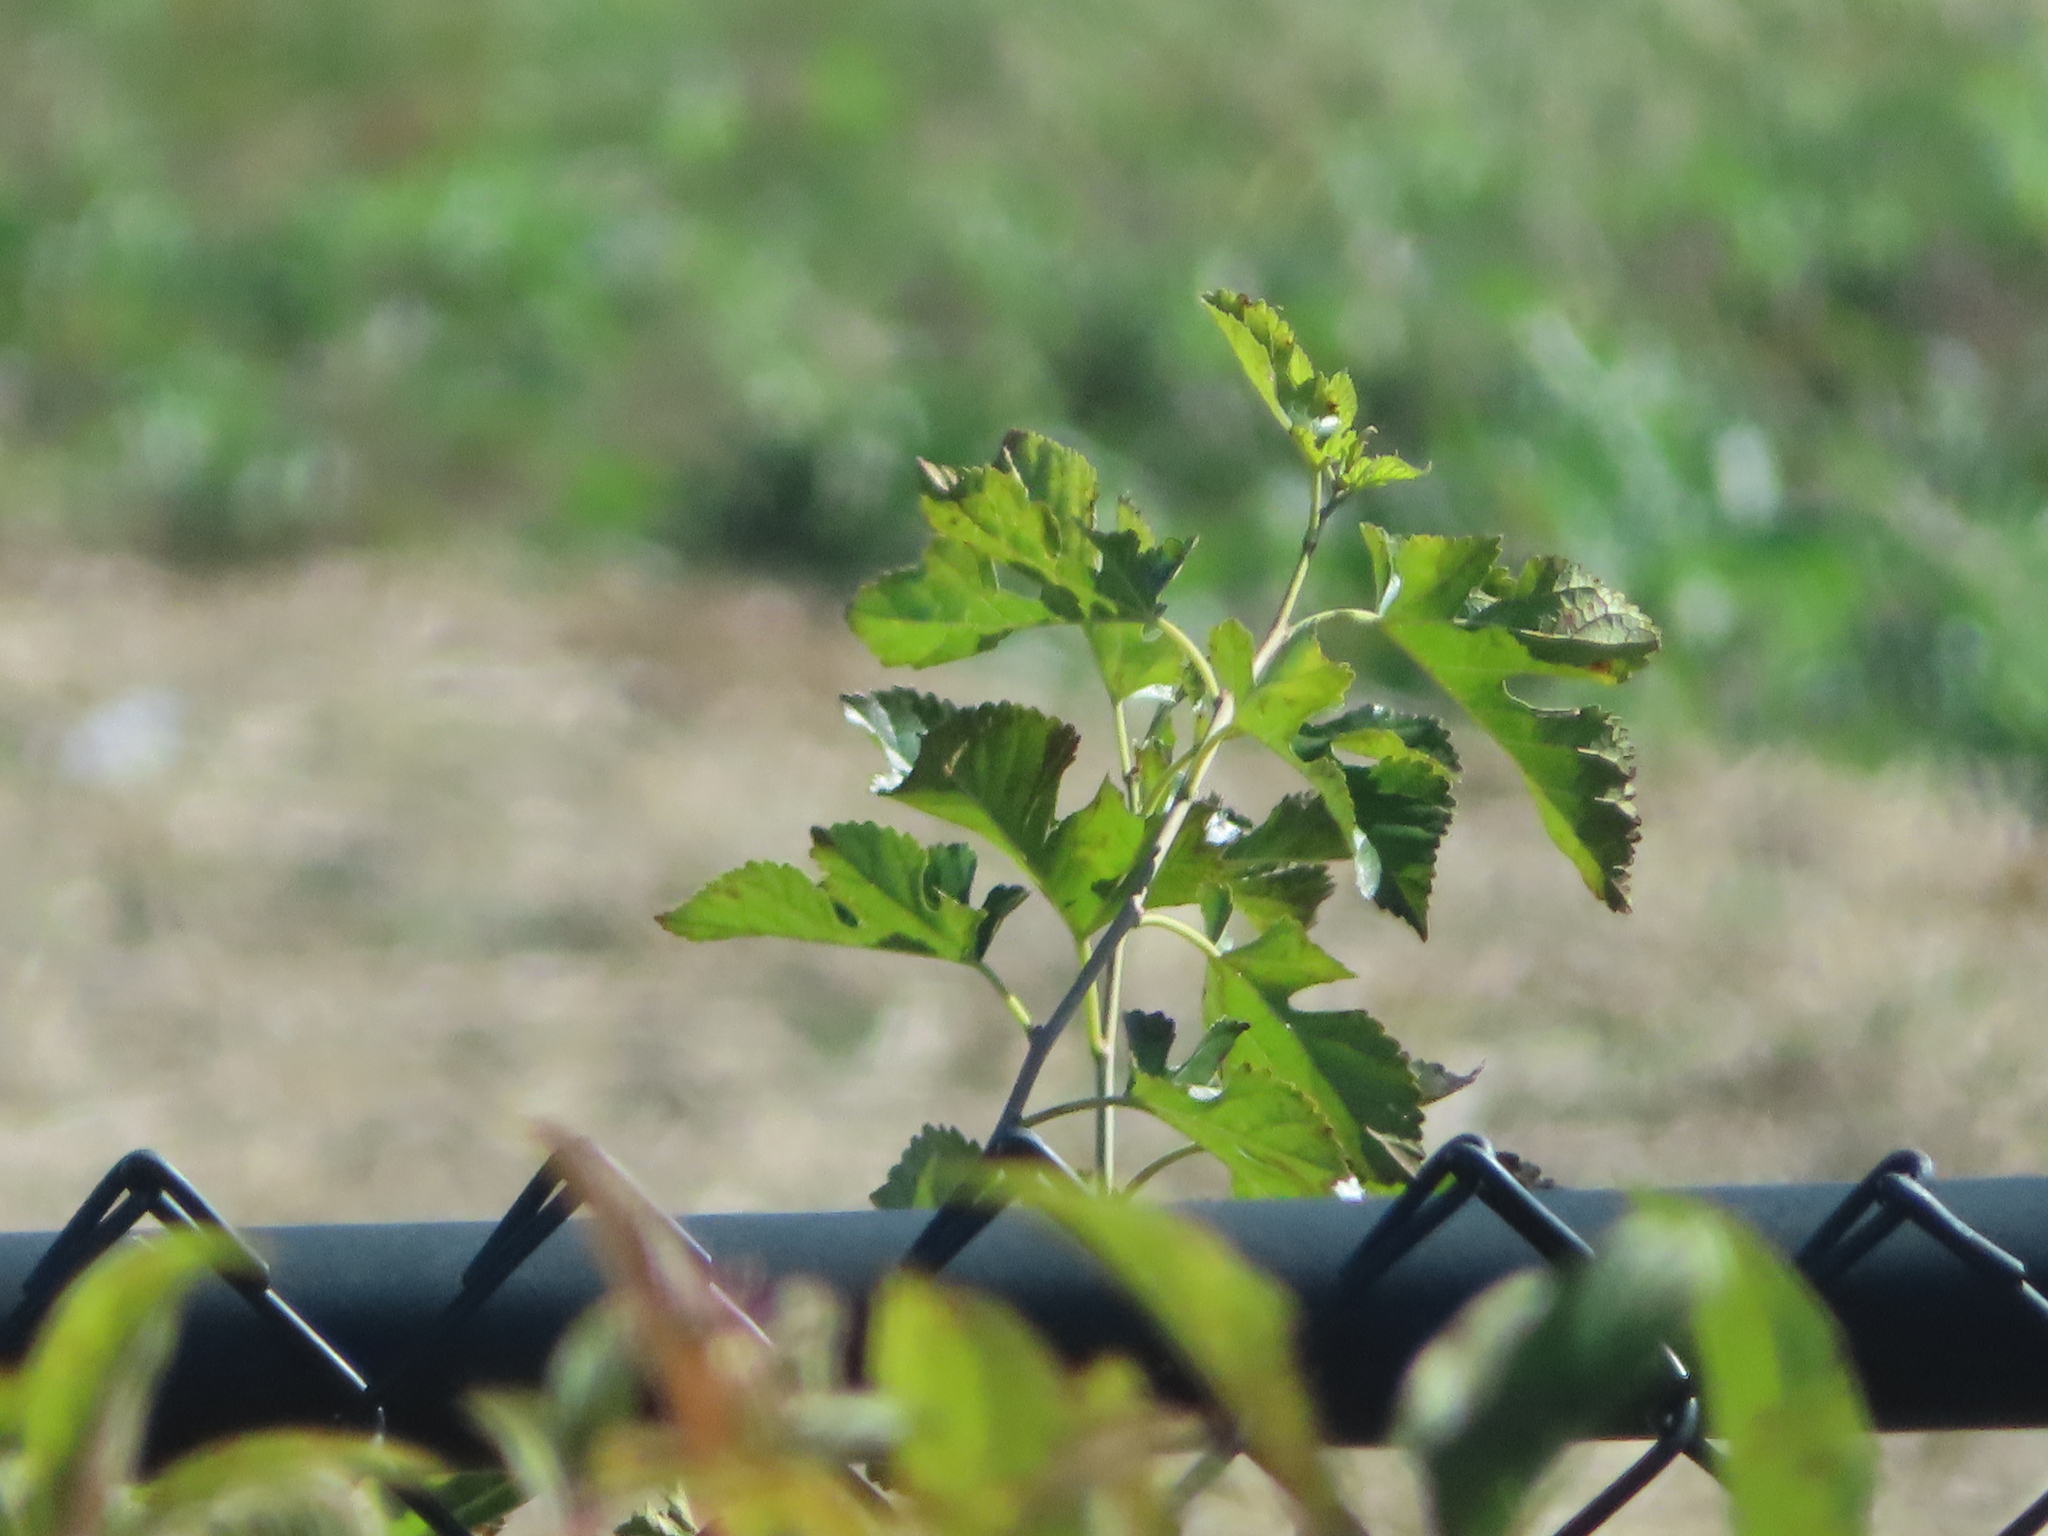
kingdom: Plantae
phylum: Tracheophyta
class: Magnoliopsida
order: Rosales
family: Moraceae
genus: Morus
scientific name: Morus alba
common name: White mulberry
